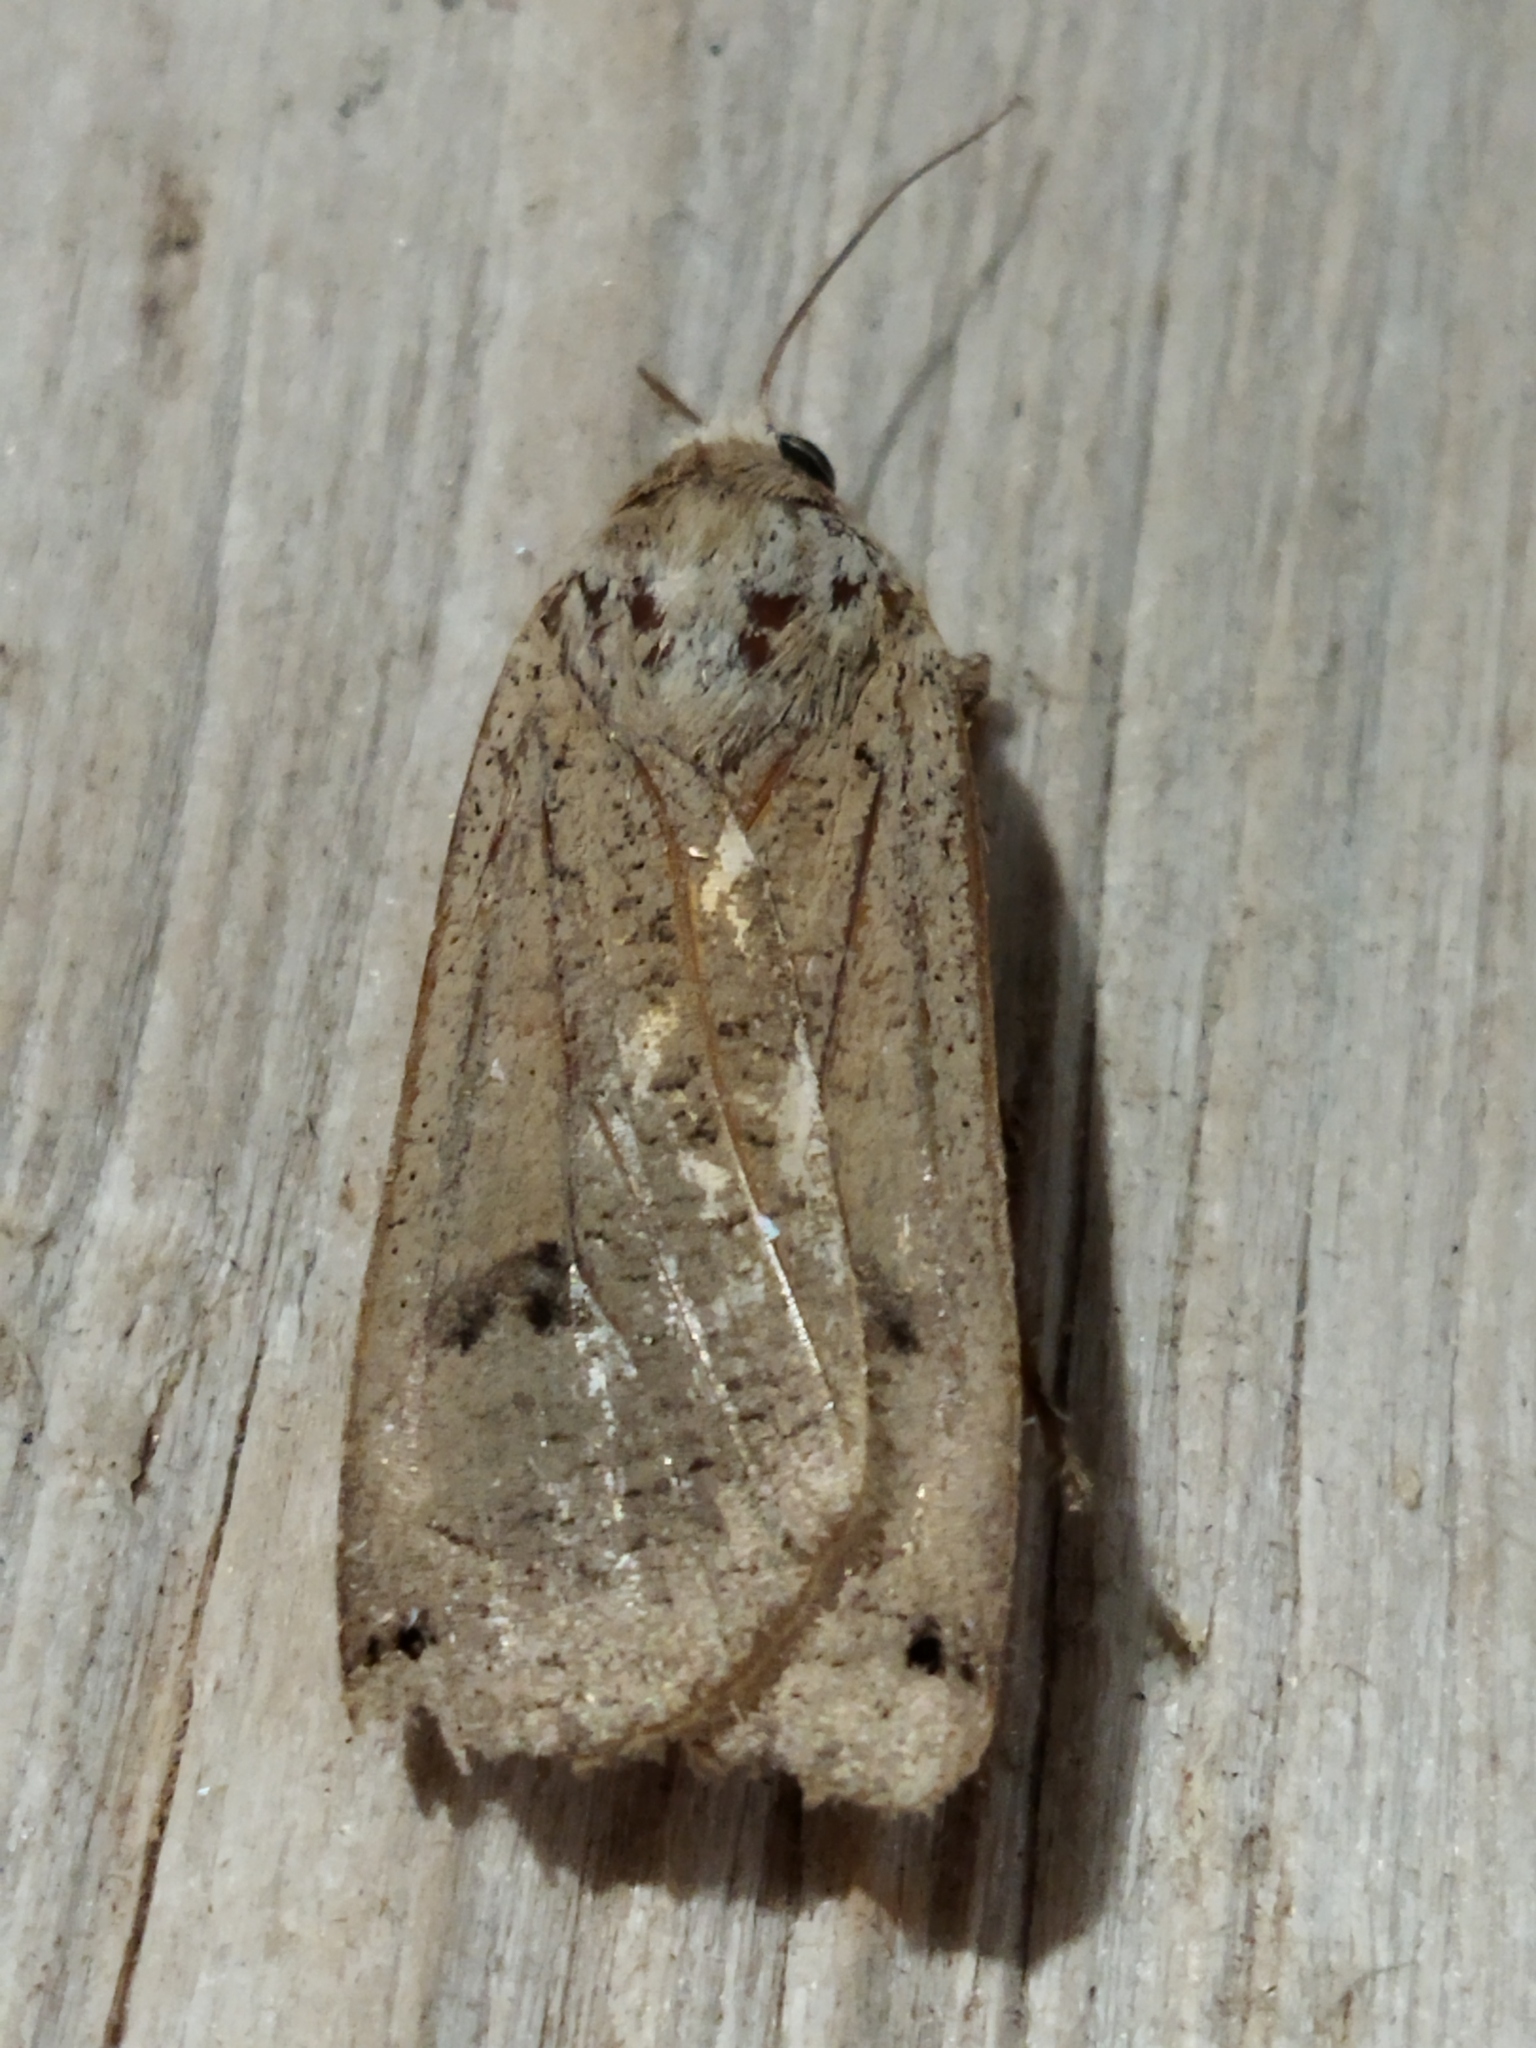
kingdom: Animalia
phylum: Arthropoda
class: Insecta
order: Lepidoptera
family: Noctuidae
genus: Noctua
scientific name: Noctua pronuba
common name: Large yellow underwing
